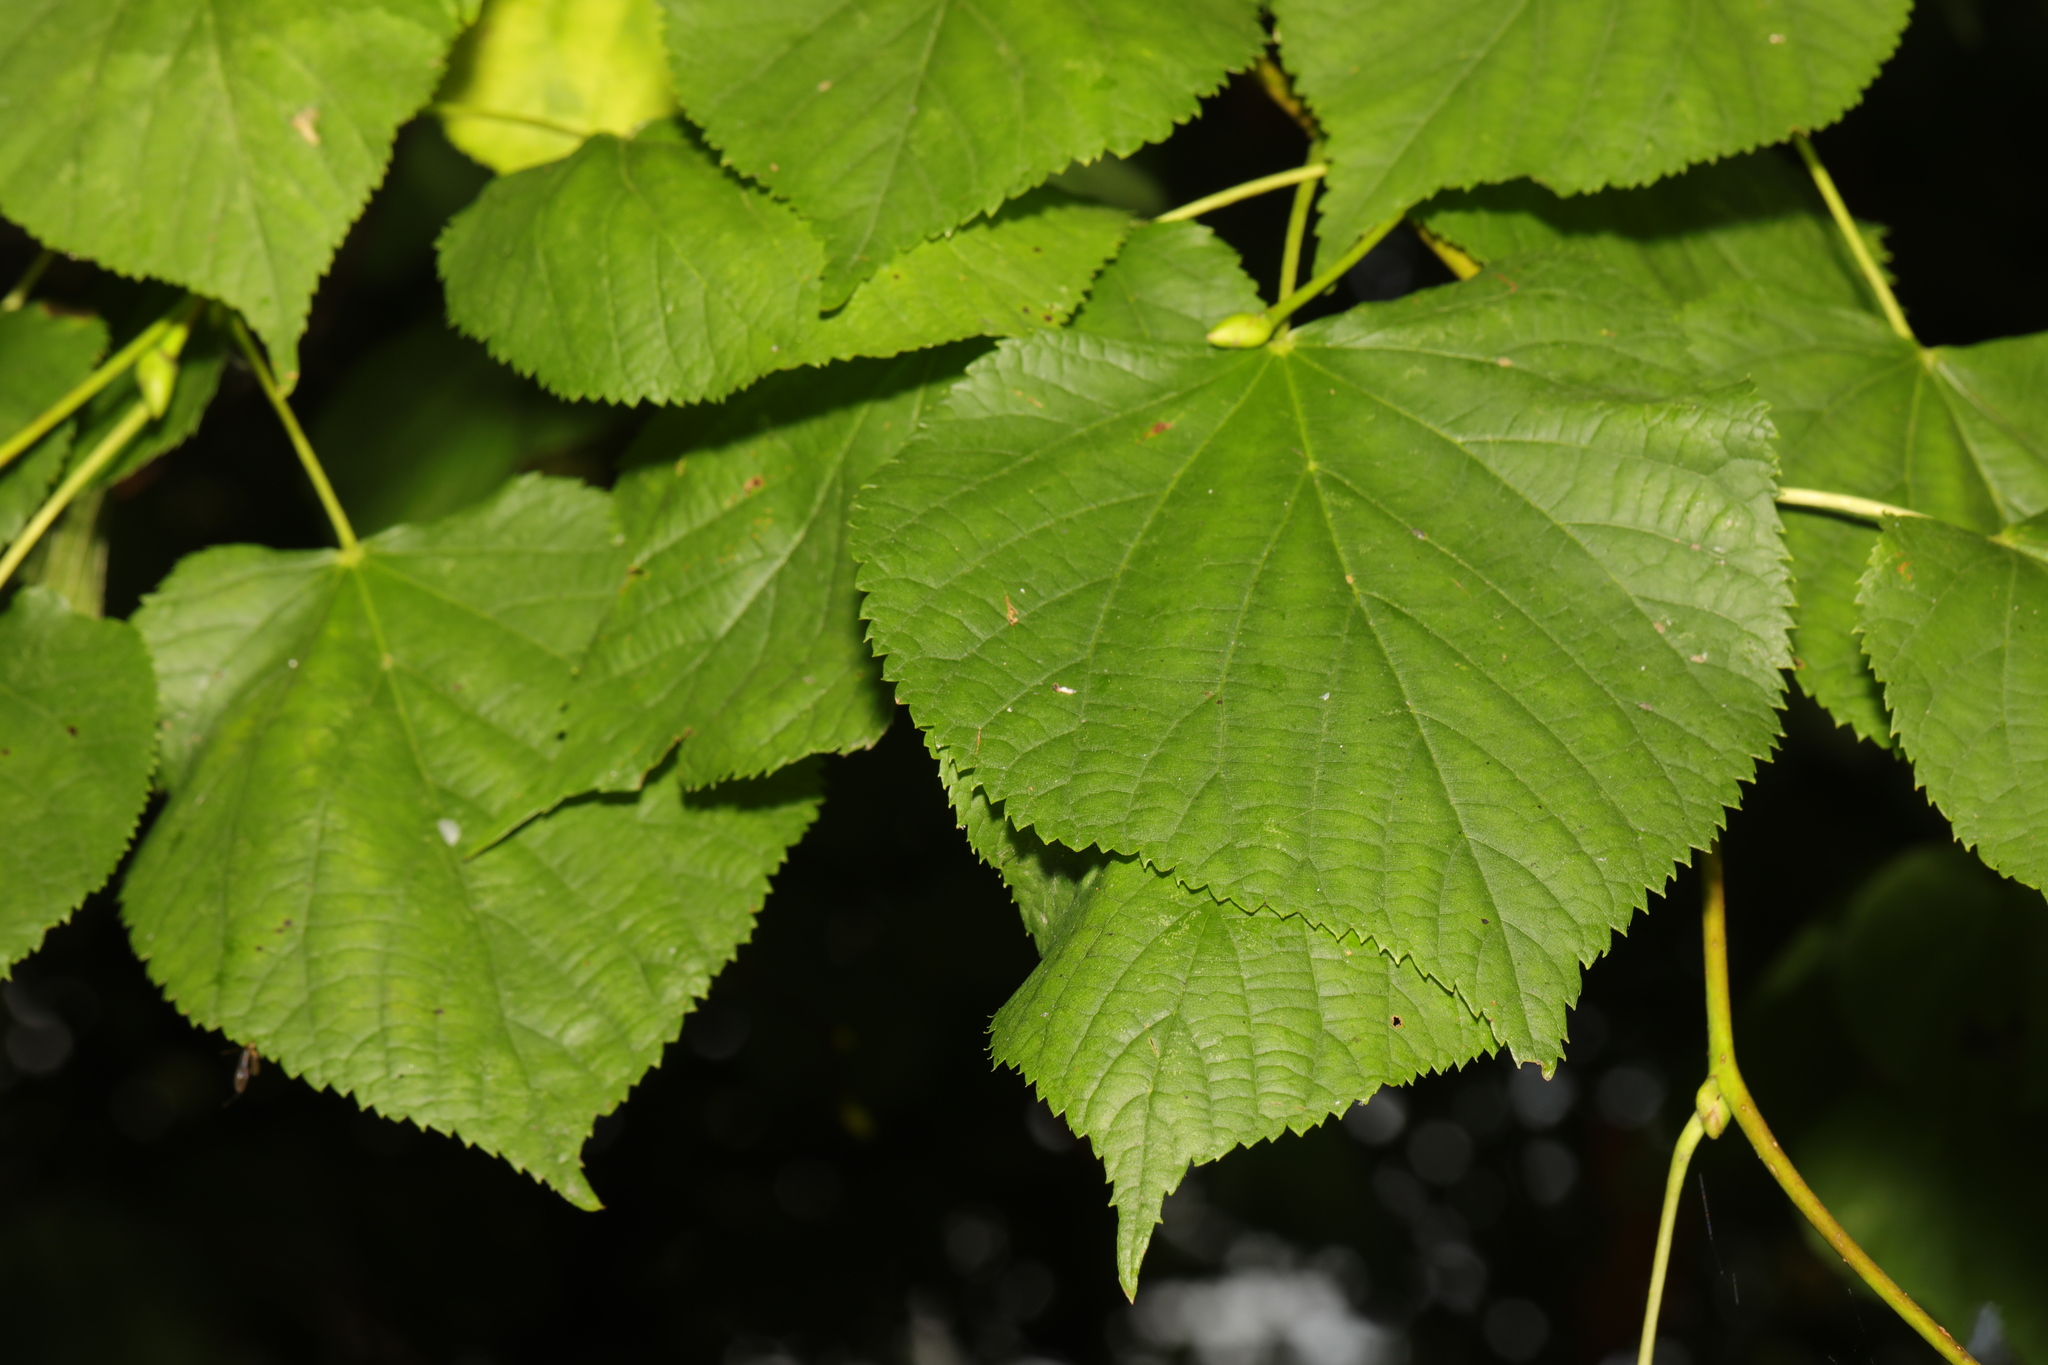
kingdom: Plantae
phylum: Tracheophyta
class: Magnoliopsida
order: Malvales
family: Malvaceae
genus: Tilia
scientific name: Tilia europaea
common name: European linden
